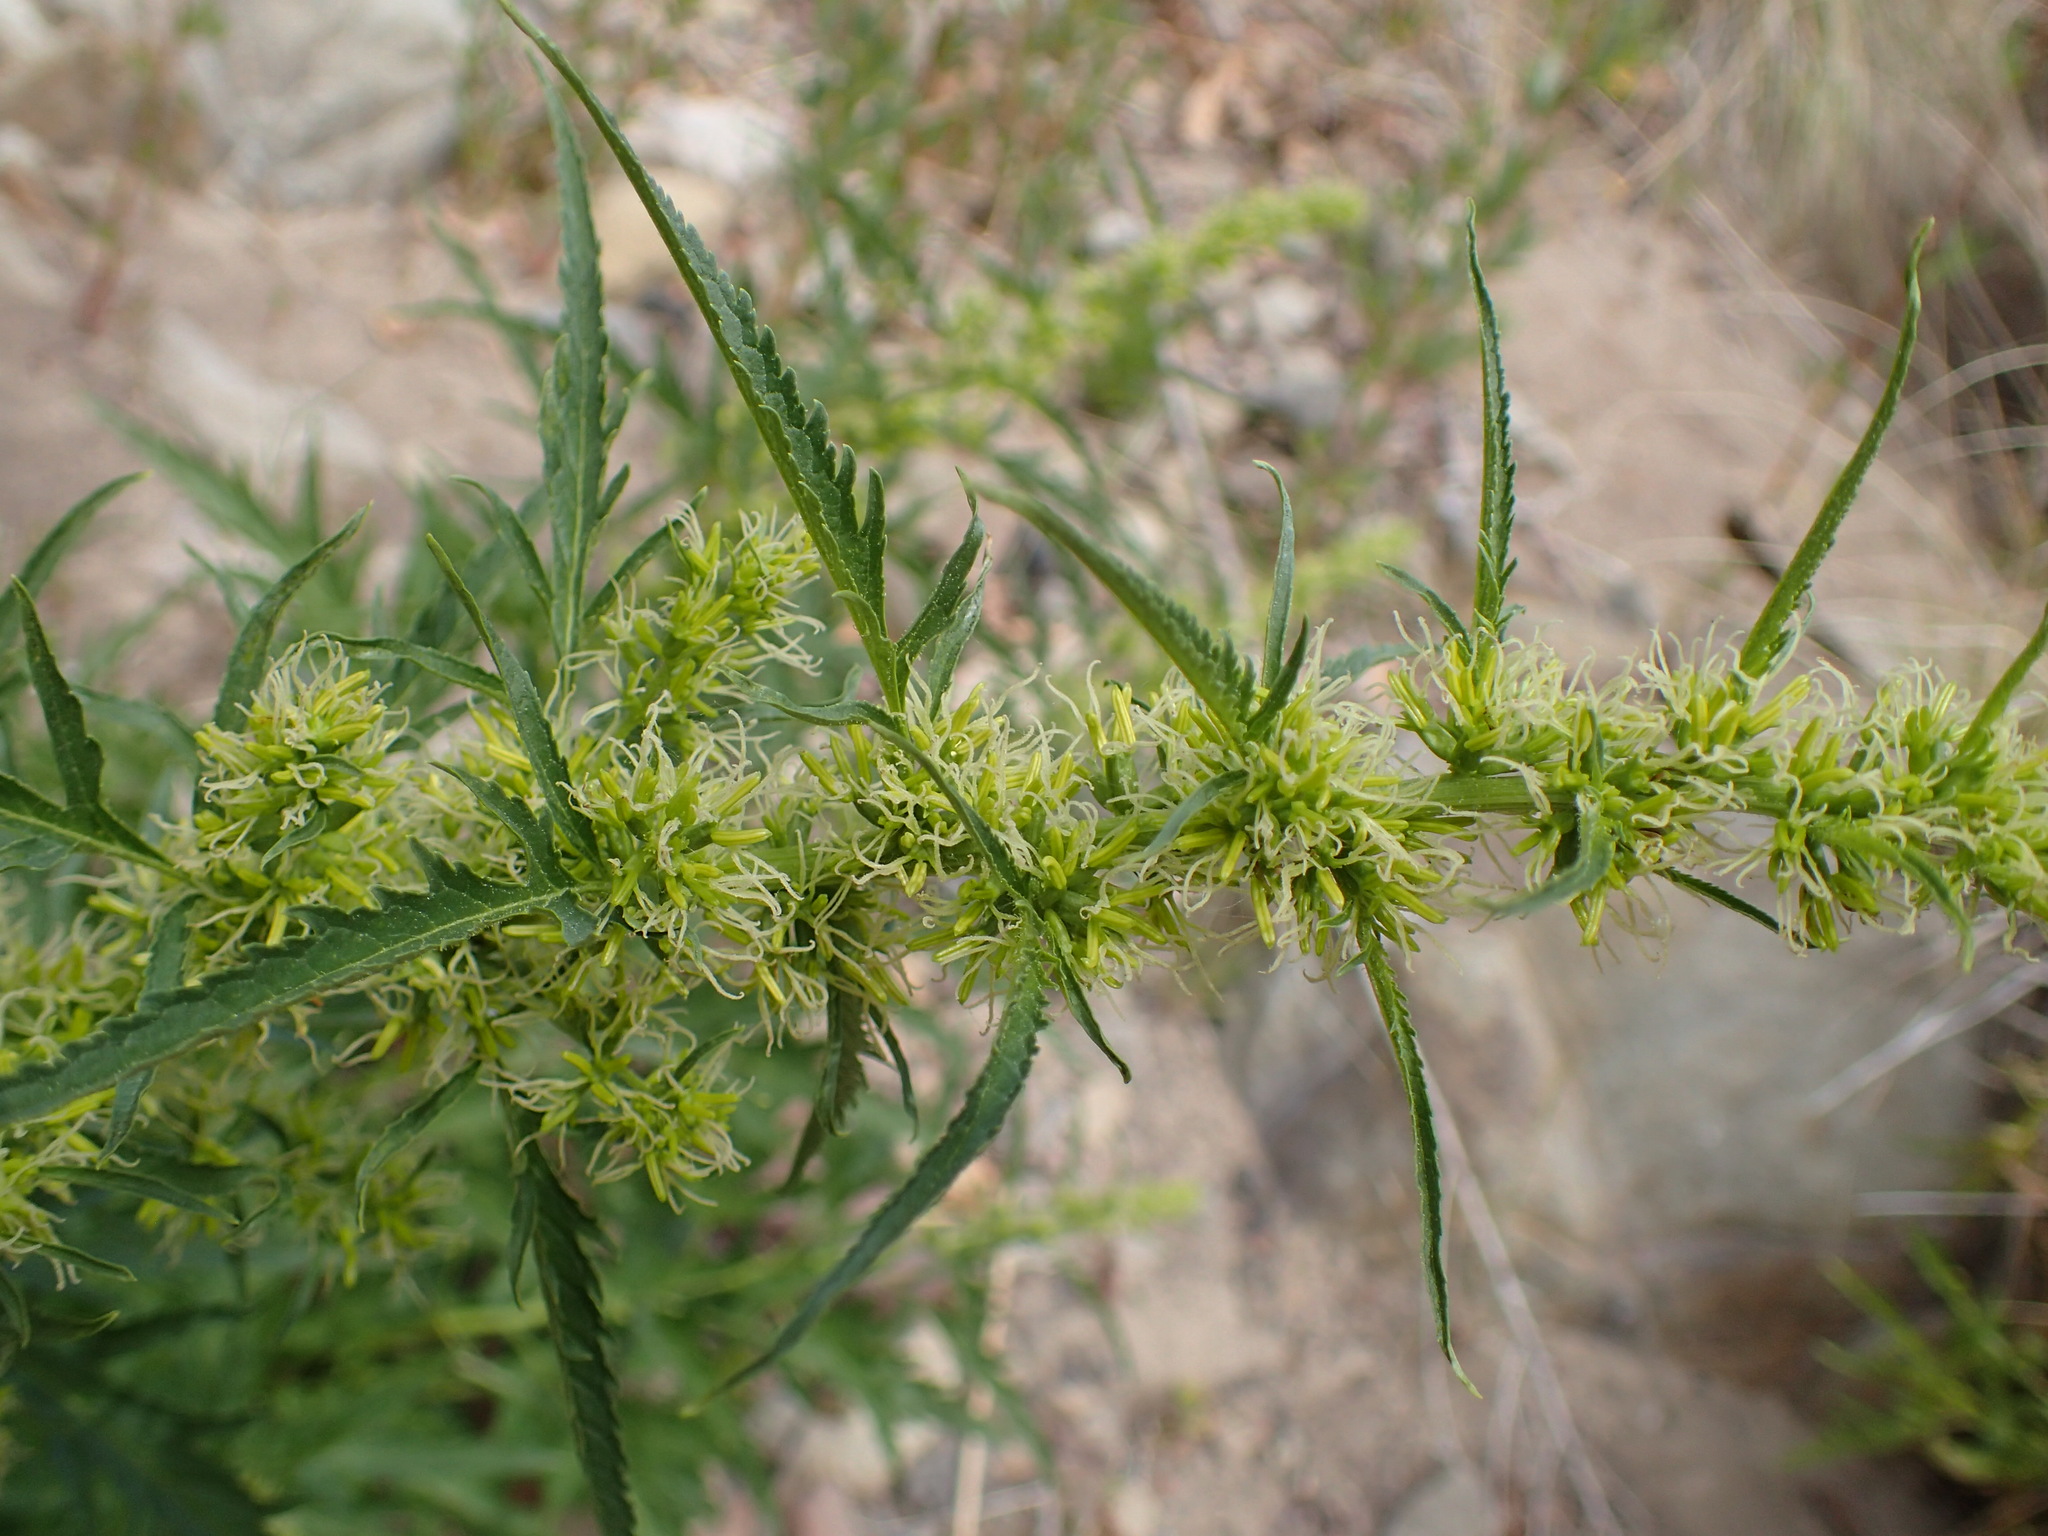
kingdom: Plantae
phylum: Tracheophyta
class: Magnoliopsida
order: Cucurbitales
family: Datiscaceae
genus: Datisca
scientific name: Datisca glomerata
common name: Durango-root
